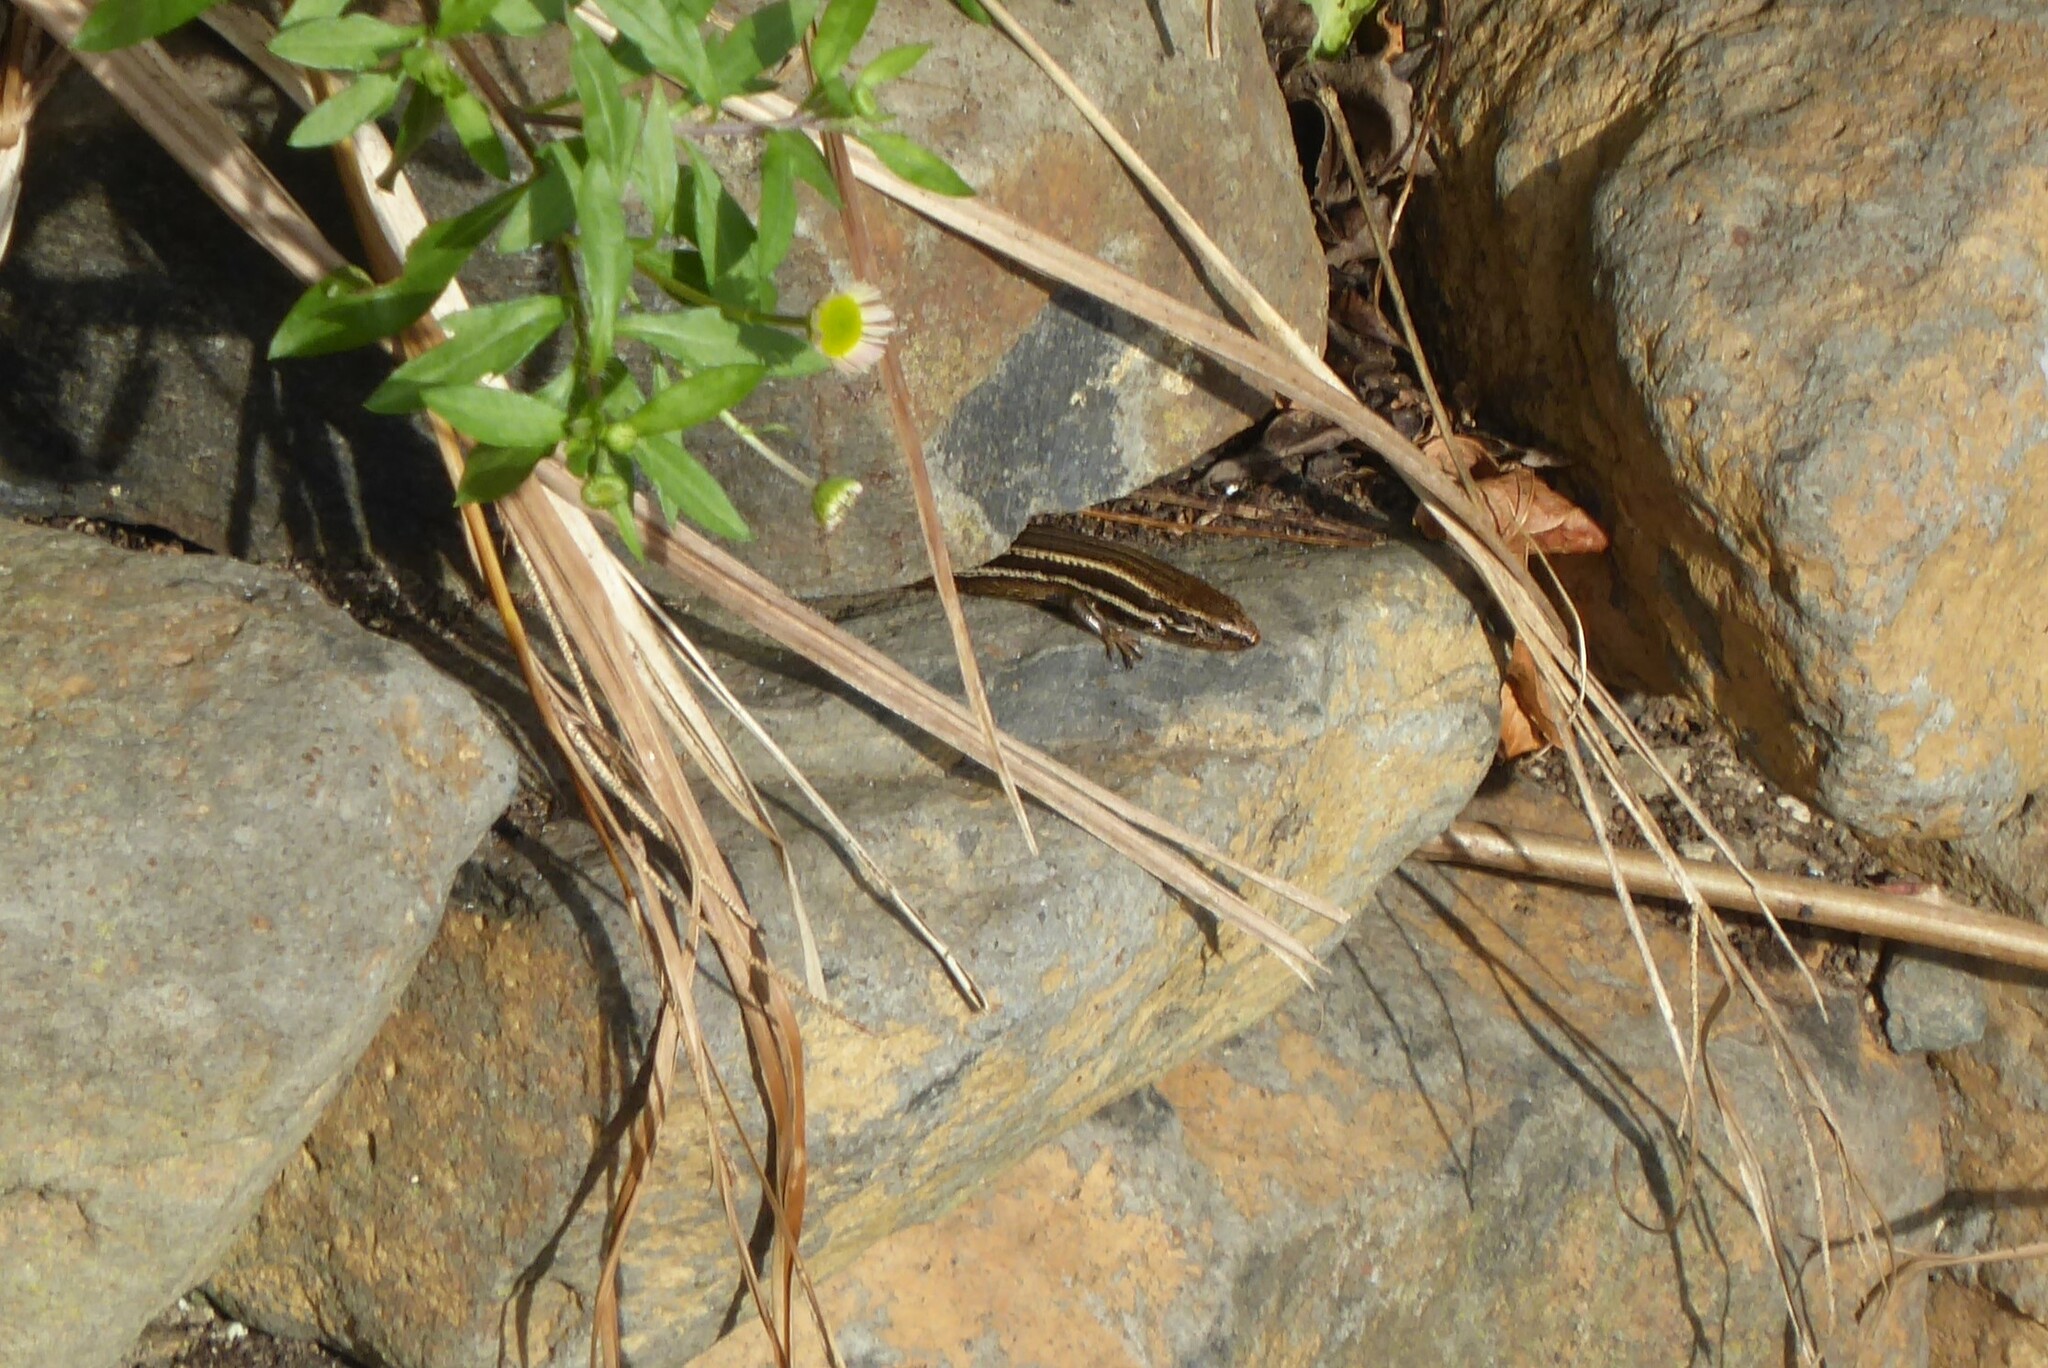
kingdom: Animalia
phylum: Chordata
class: Squamata
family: Scincidae
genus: Oligosoma
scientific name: Oligosoma polychroma
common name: Common new zealand skink
